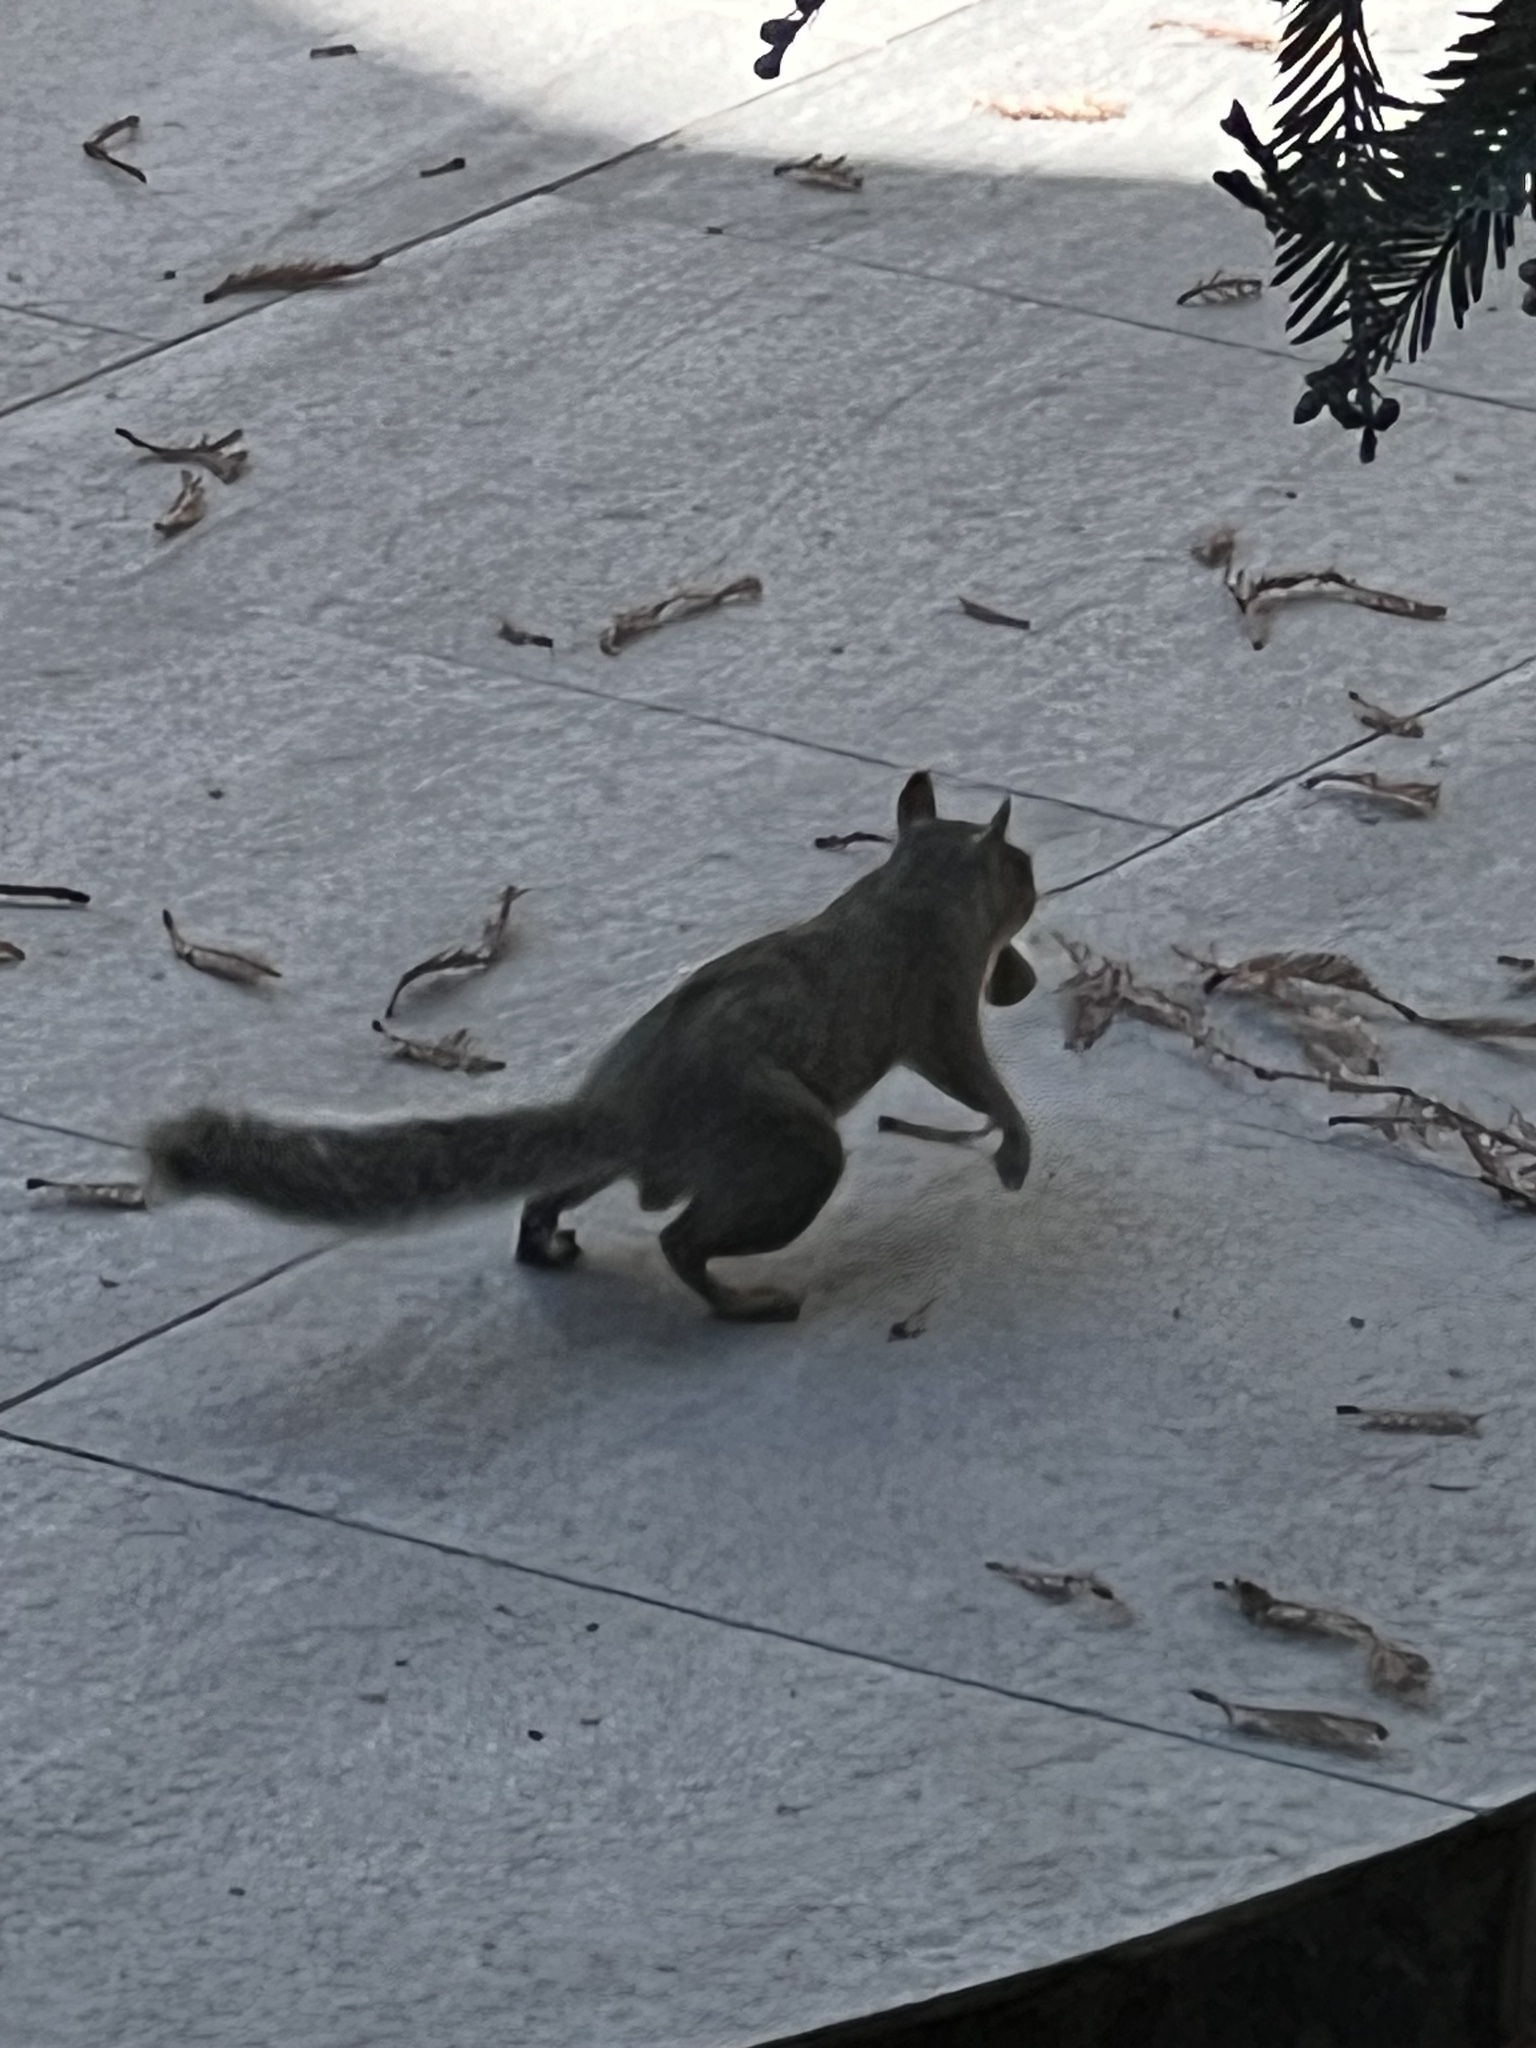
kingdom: Animalia
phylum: Chordata
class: Mammalia
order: Rodentia
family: Sciuridae
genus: Sciurus
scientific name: Sciurus carolinensis
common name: Eastern gray squirrel
